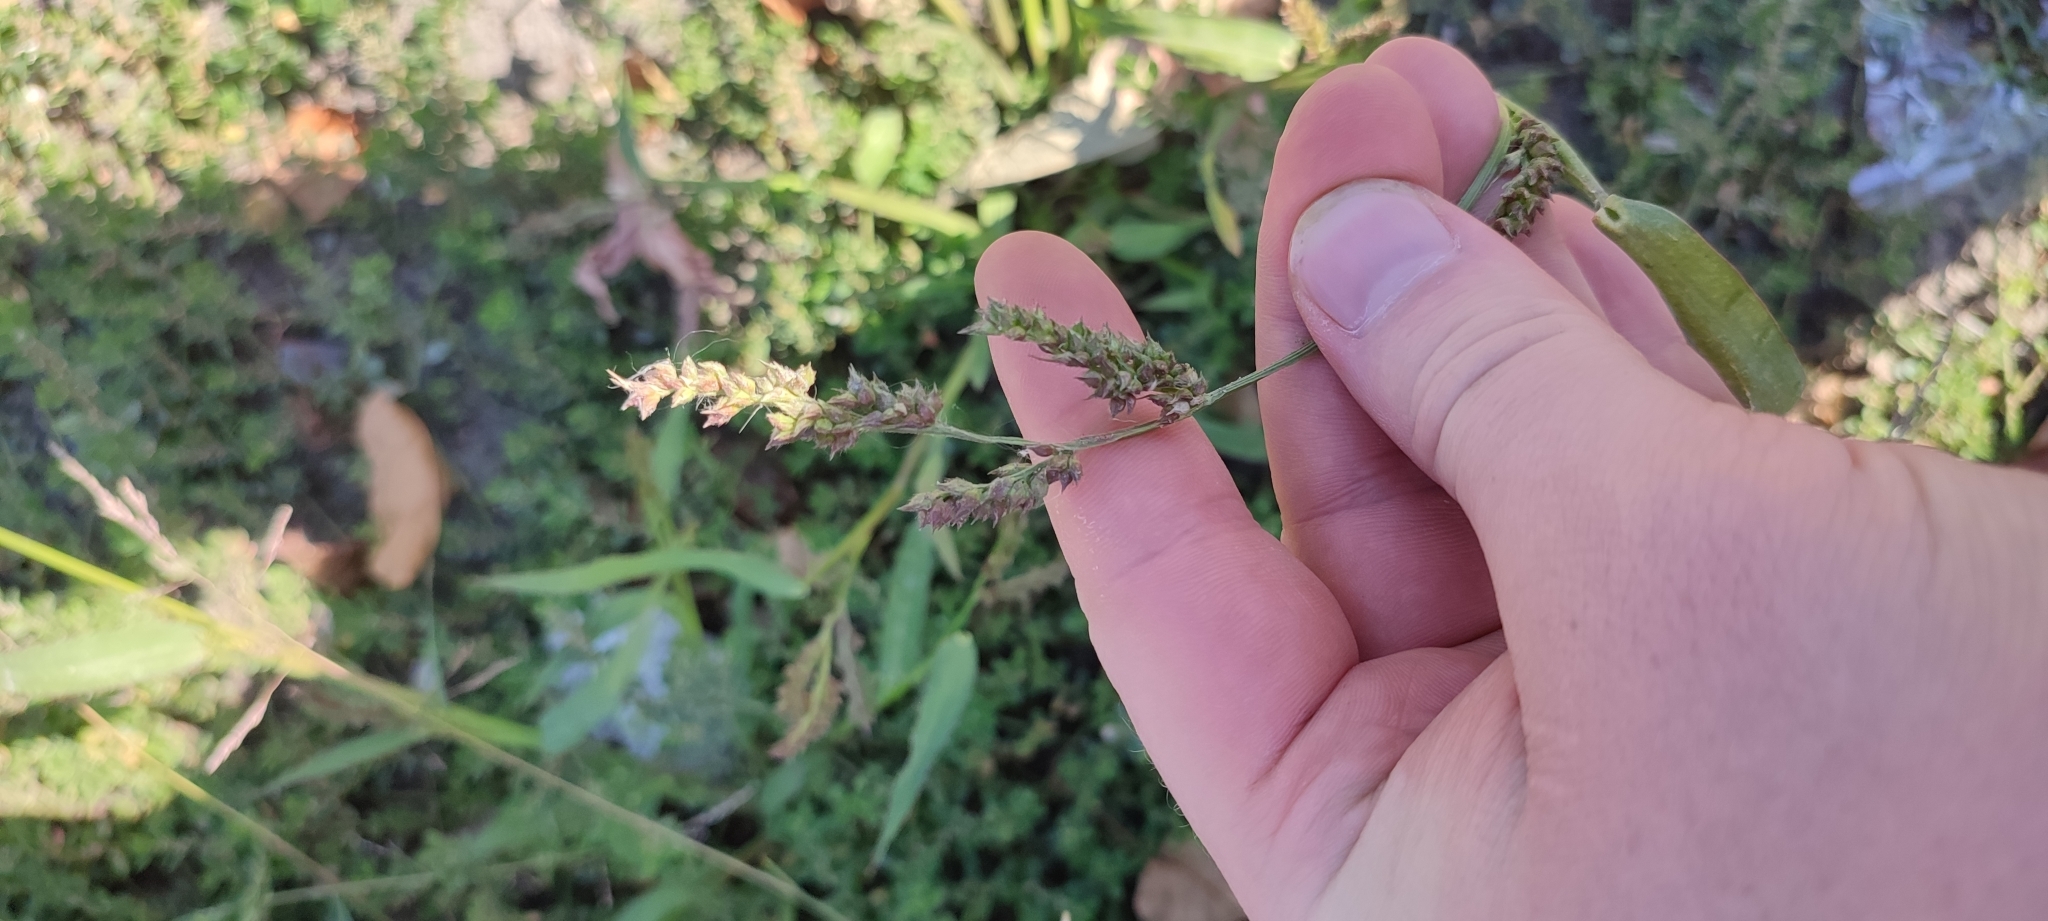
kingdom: Plantae
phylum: Tracheophyta
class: Liliopsida
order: Poales
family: Poaceae
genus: Echinochloa
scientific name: Echinochloa crus-galli
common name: Cockspur
